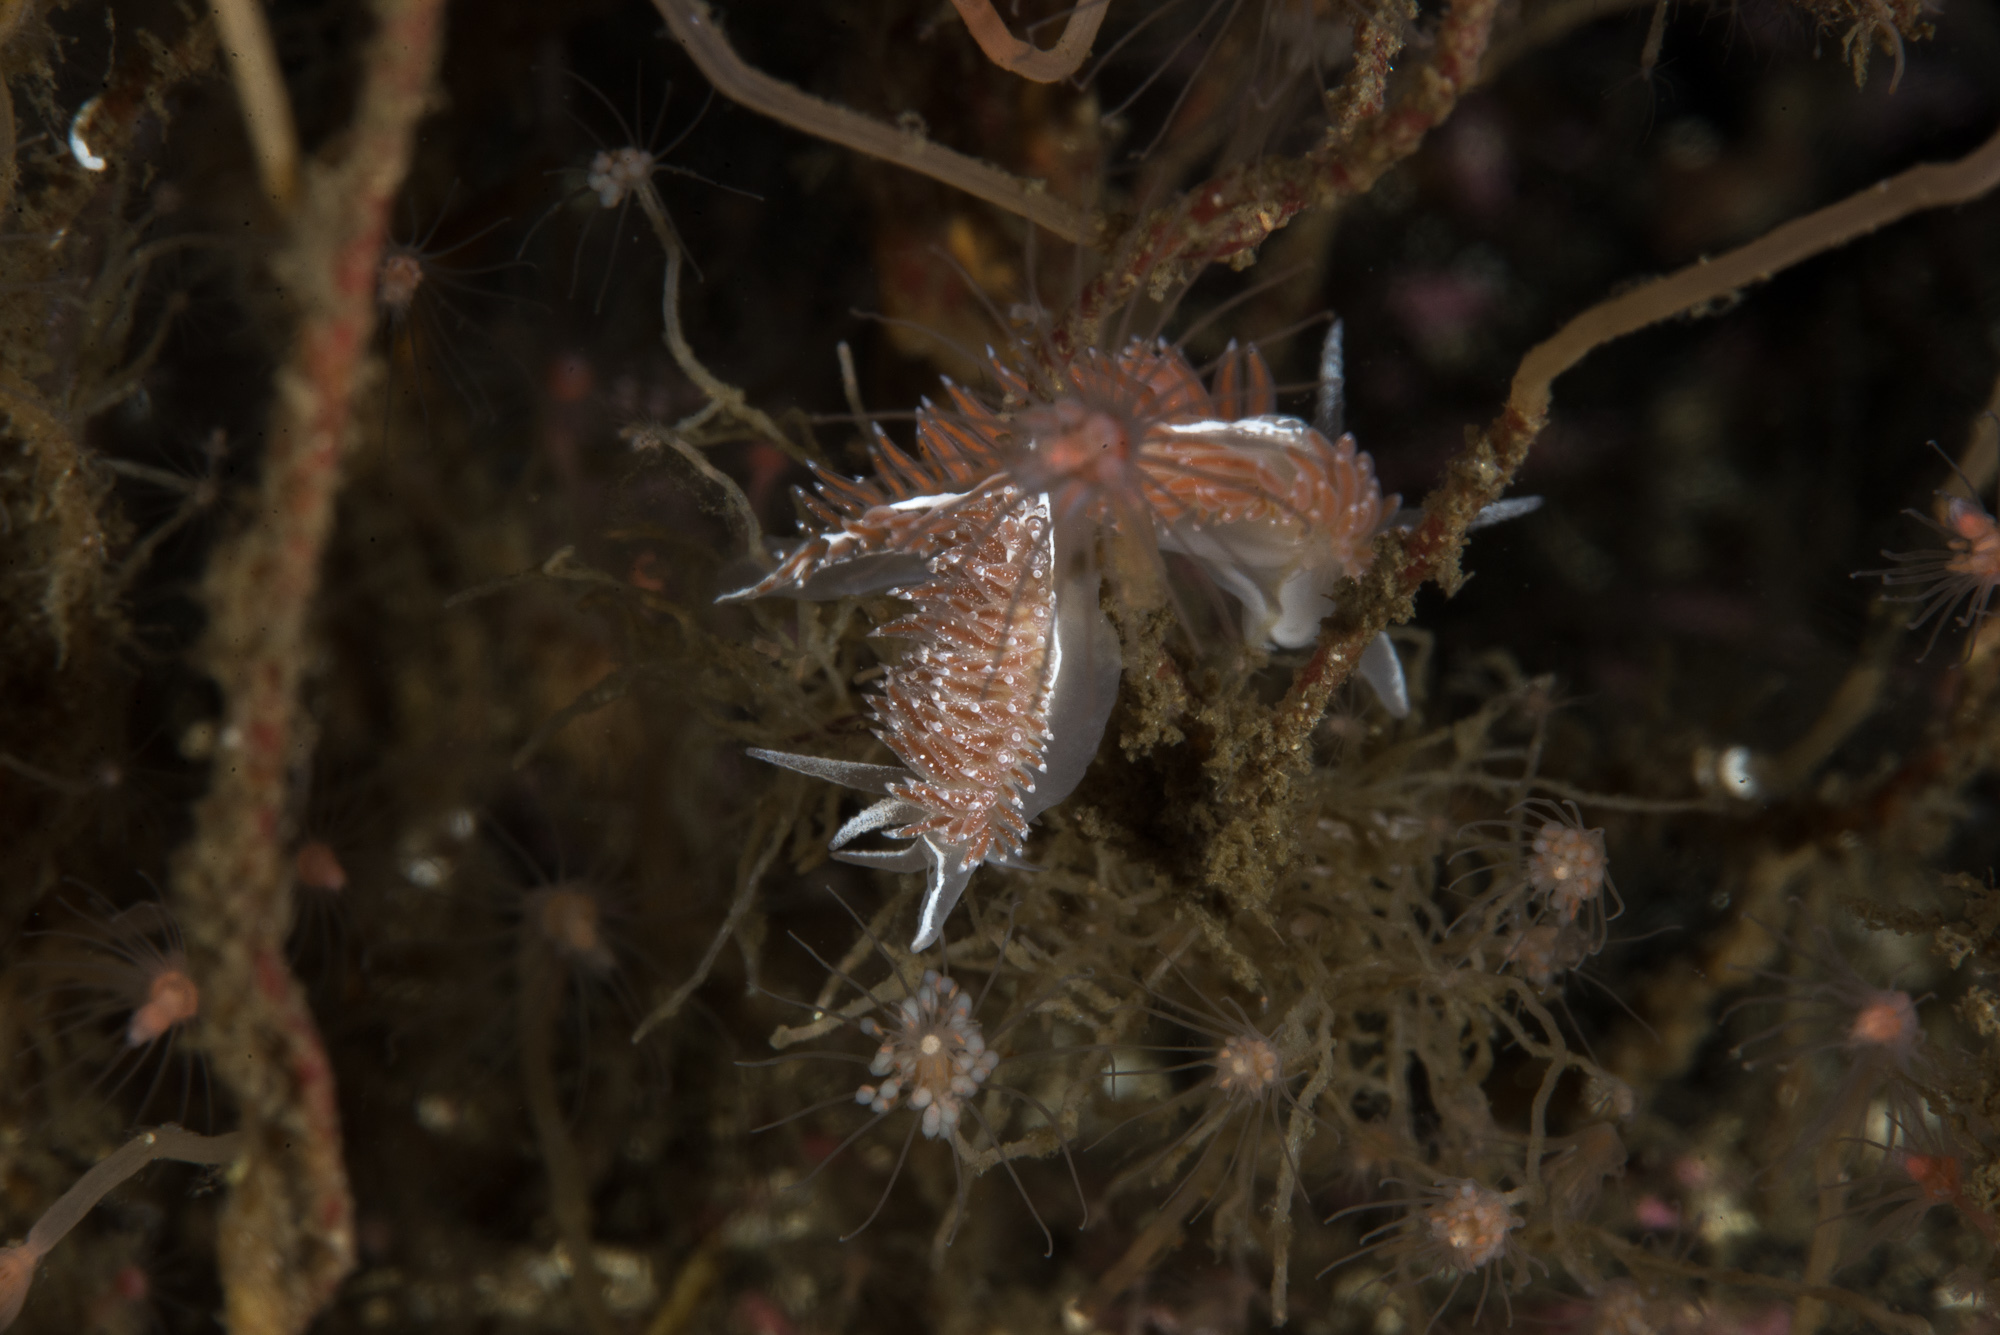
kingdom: Animalia
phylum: Mollusca
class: Gastropoda
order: Nudibranchia
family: Coryphellidae
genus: Coryphella
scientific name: Coryphella orjani
